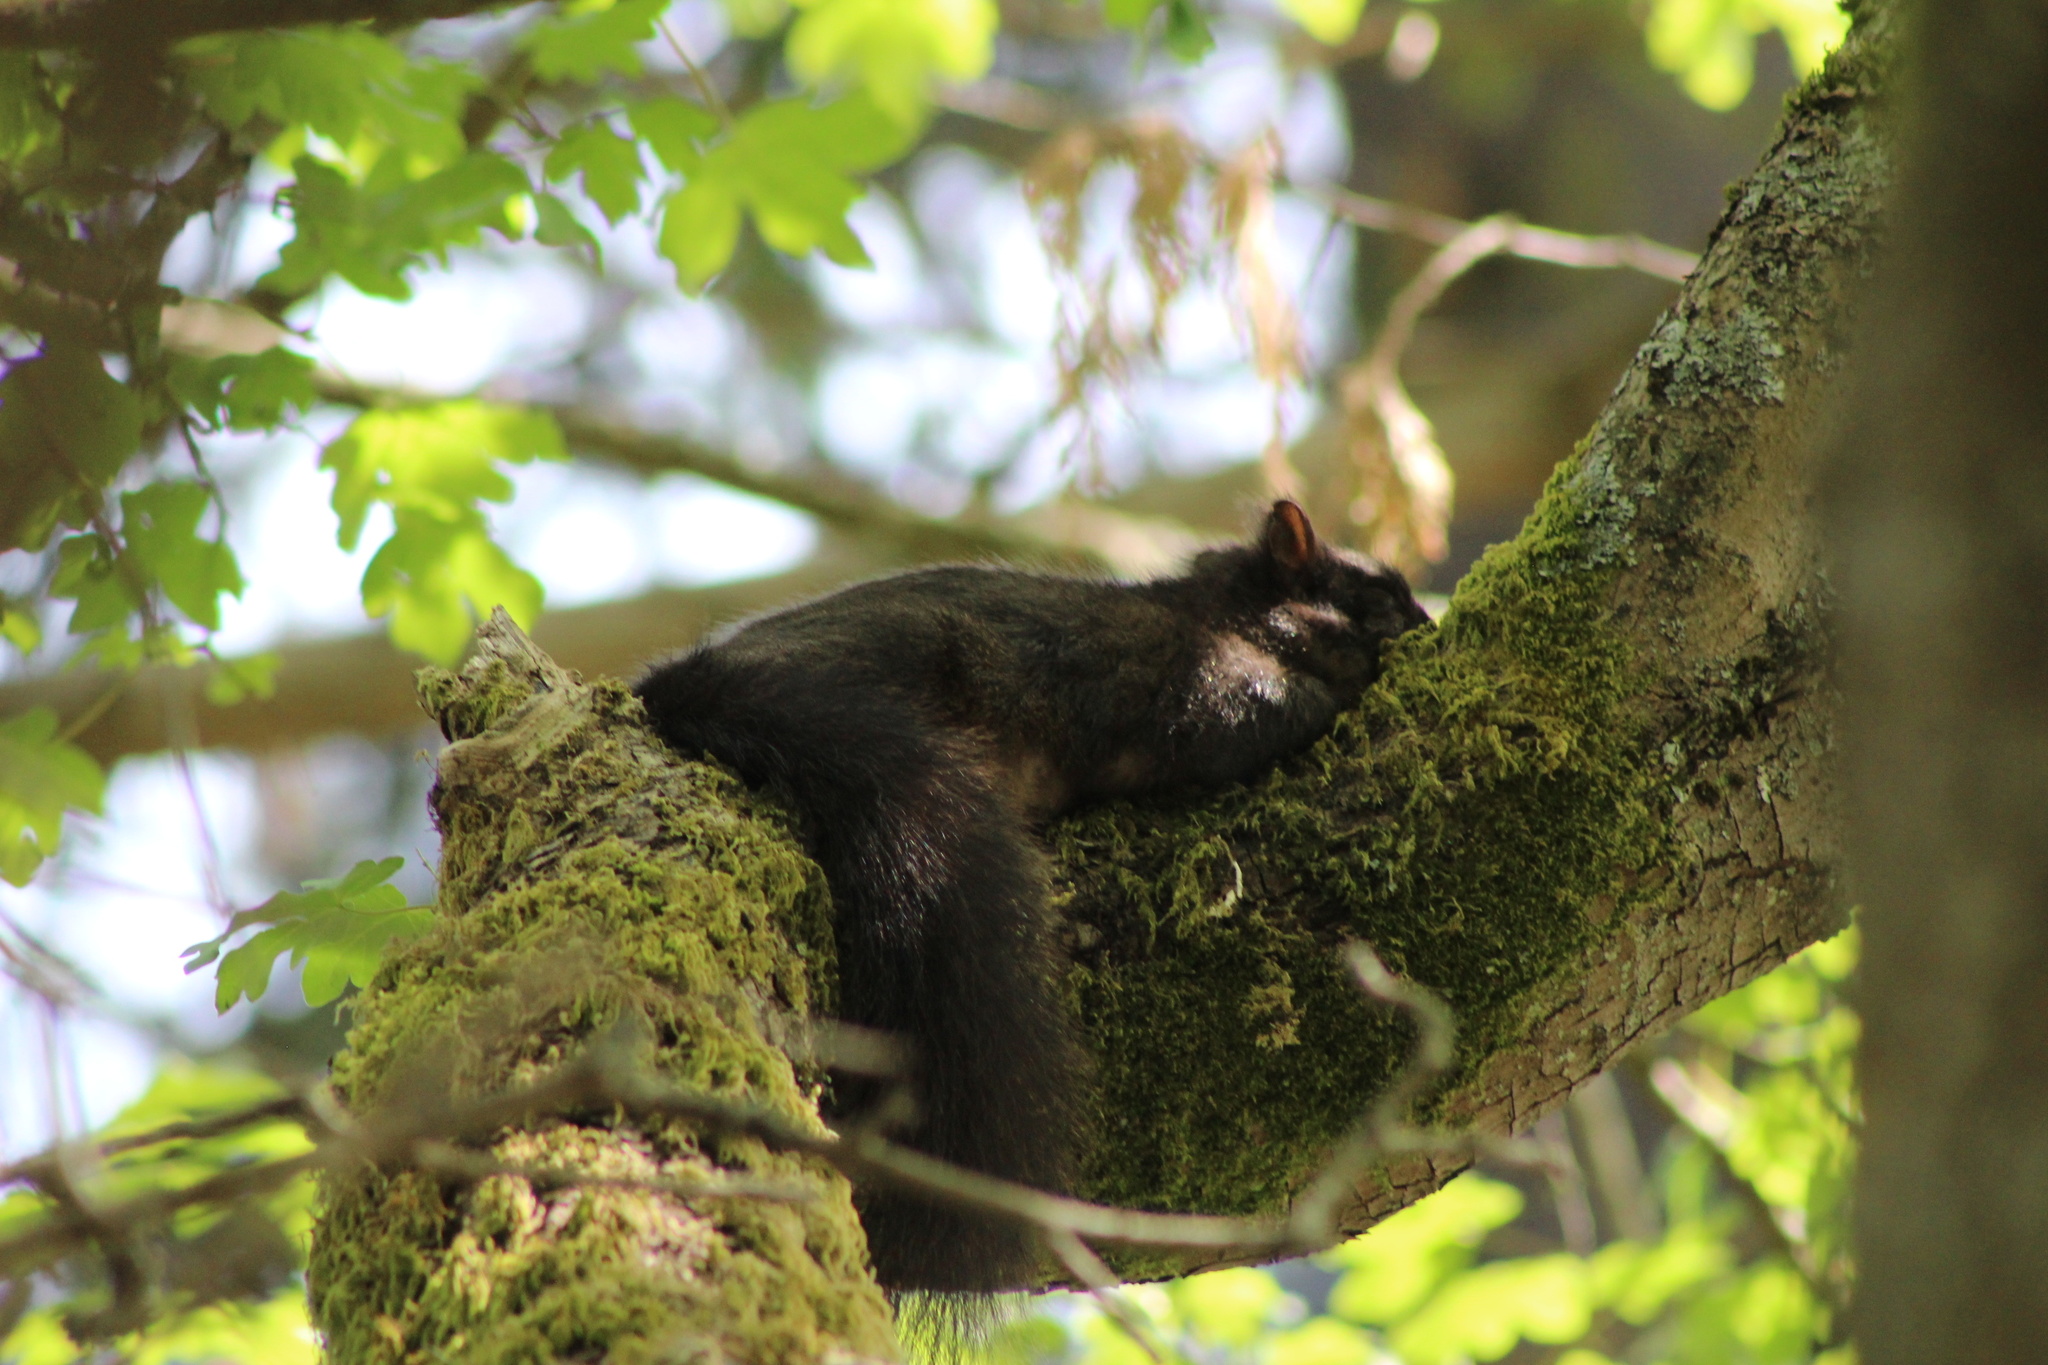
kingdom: Animalia
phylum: Chordata
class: Mammalia
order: Rodentia
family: Sciuridae
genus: Sciurus
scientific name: Sciurus carolinensis
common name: Eastern gray squirrel
